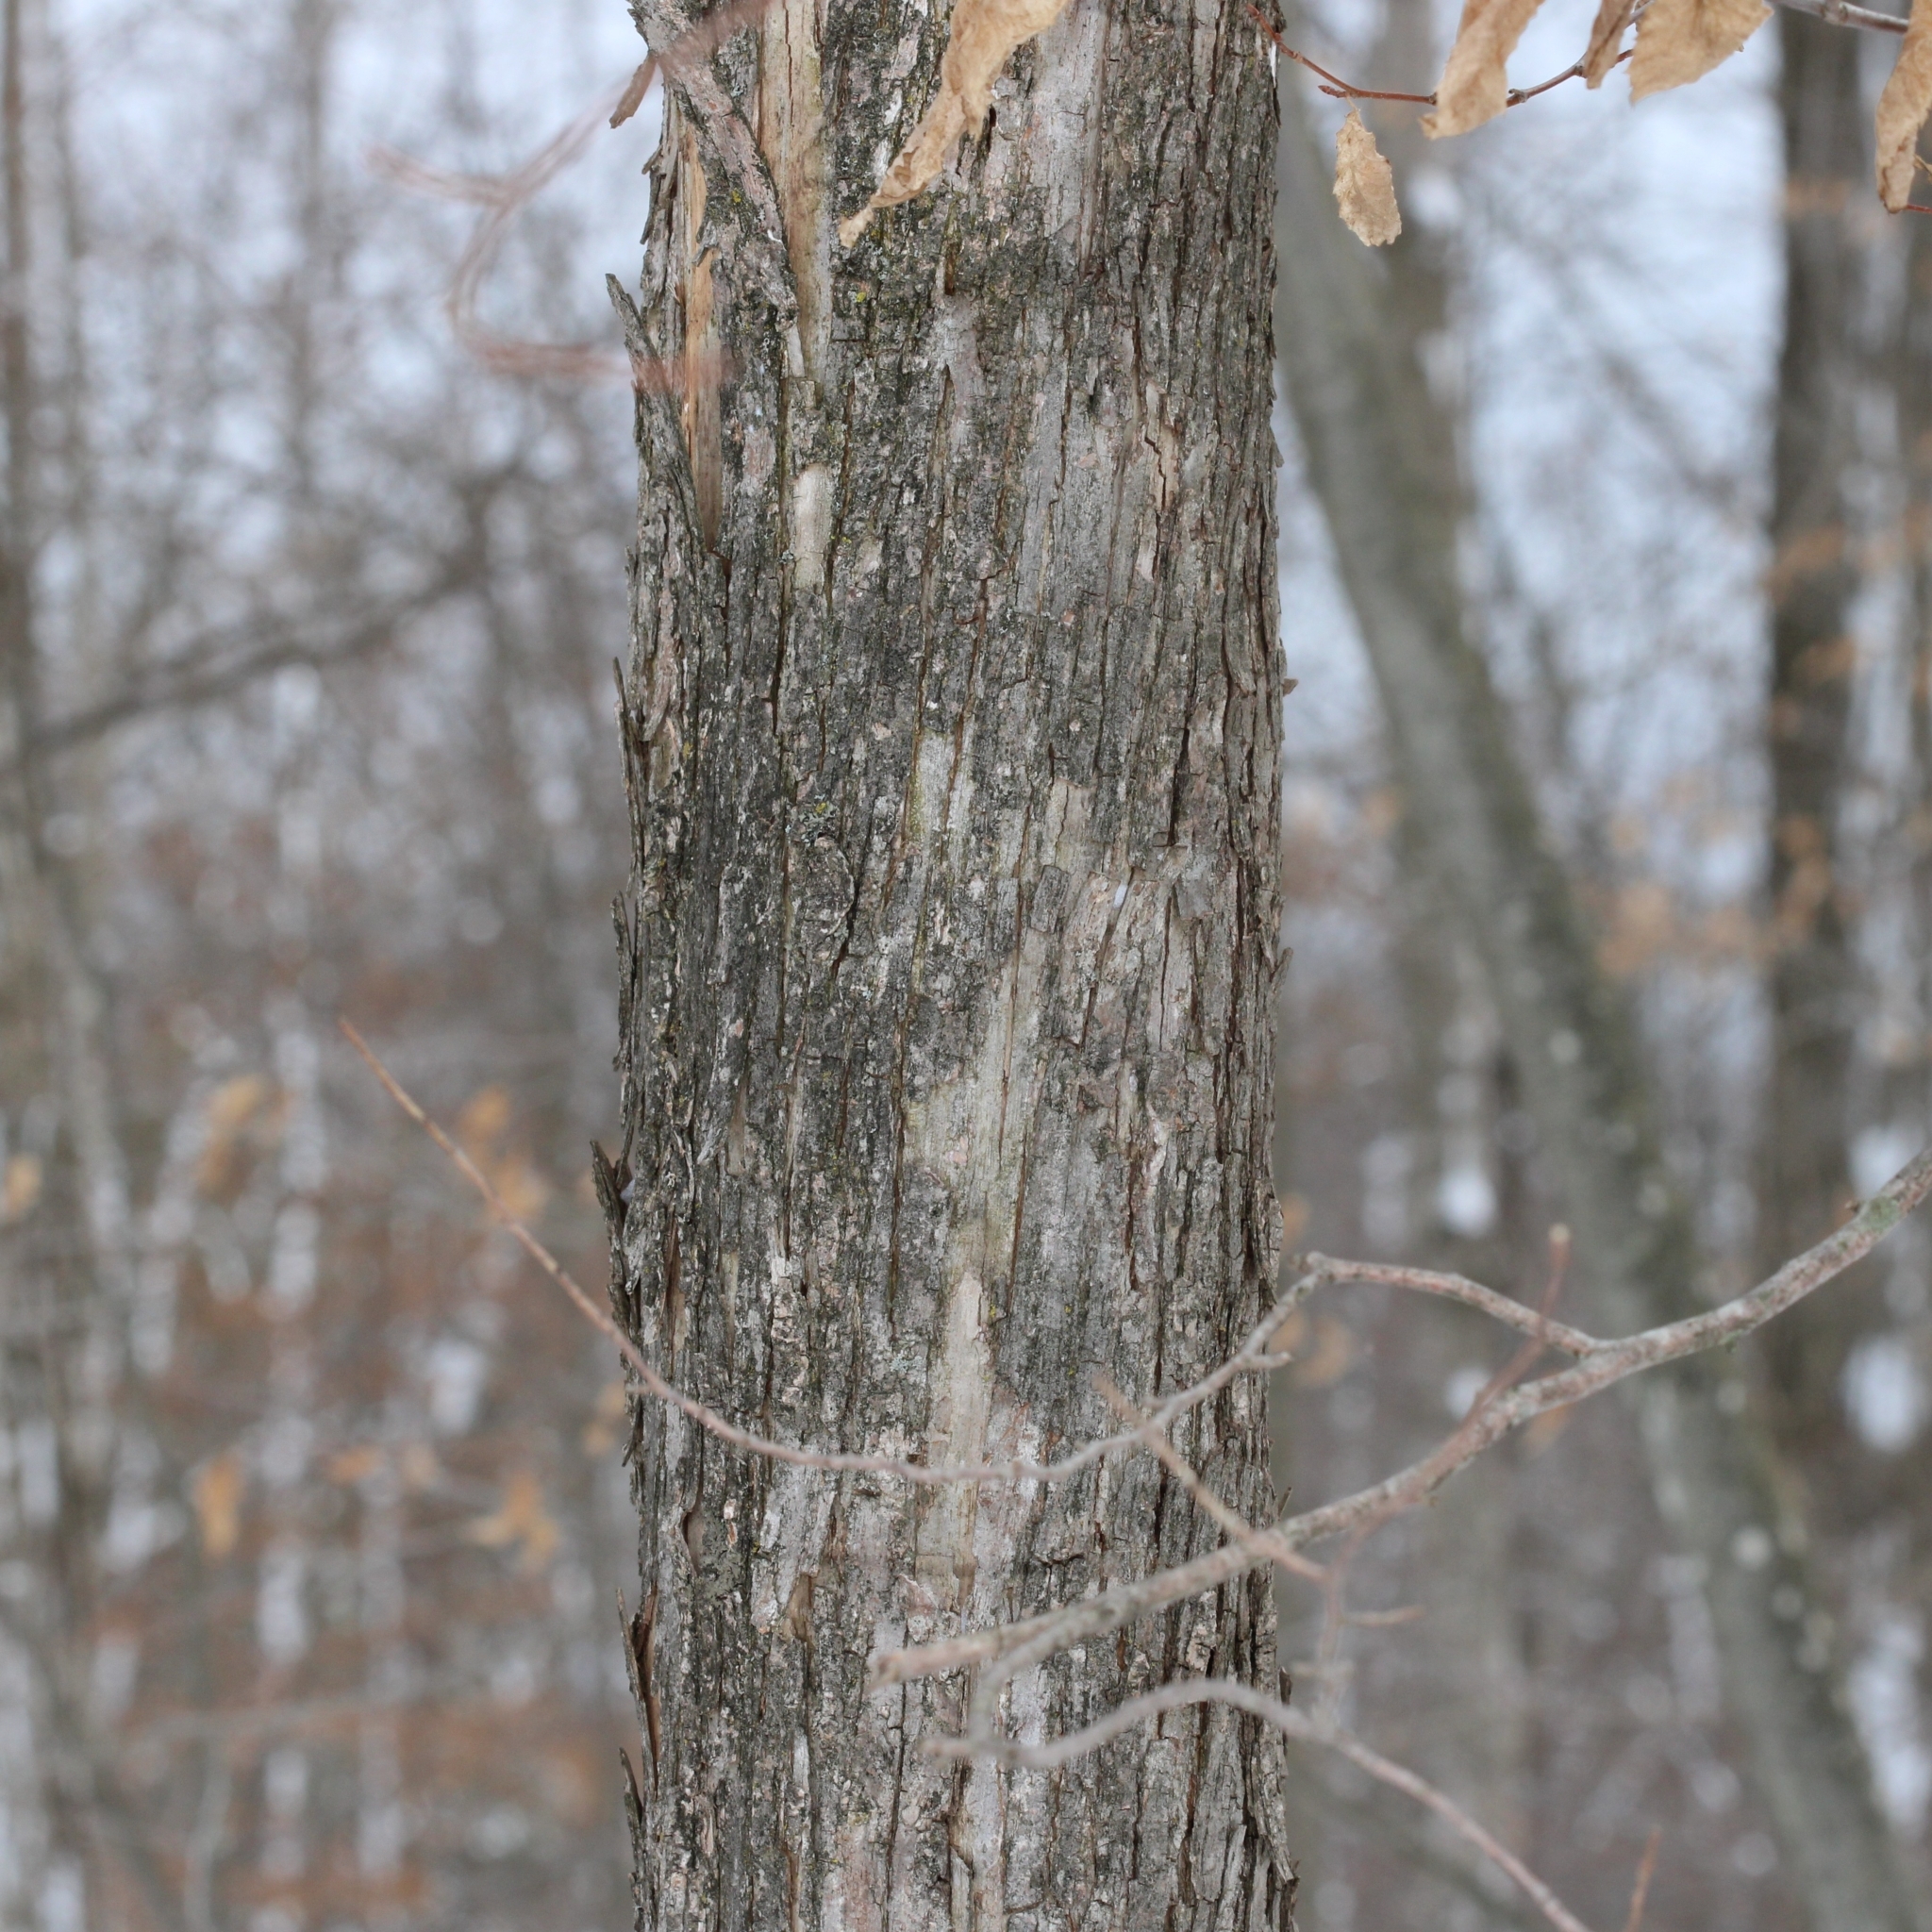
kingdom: Plantae
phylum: Tracheophyta
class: Magnoliopsida
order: Fagales
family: Betulaceae
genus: Ostrya
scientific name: Ostrya virginiana
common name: Ironwood
